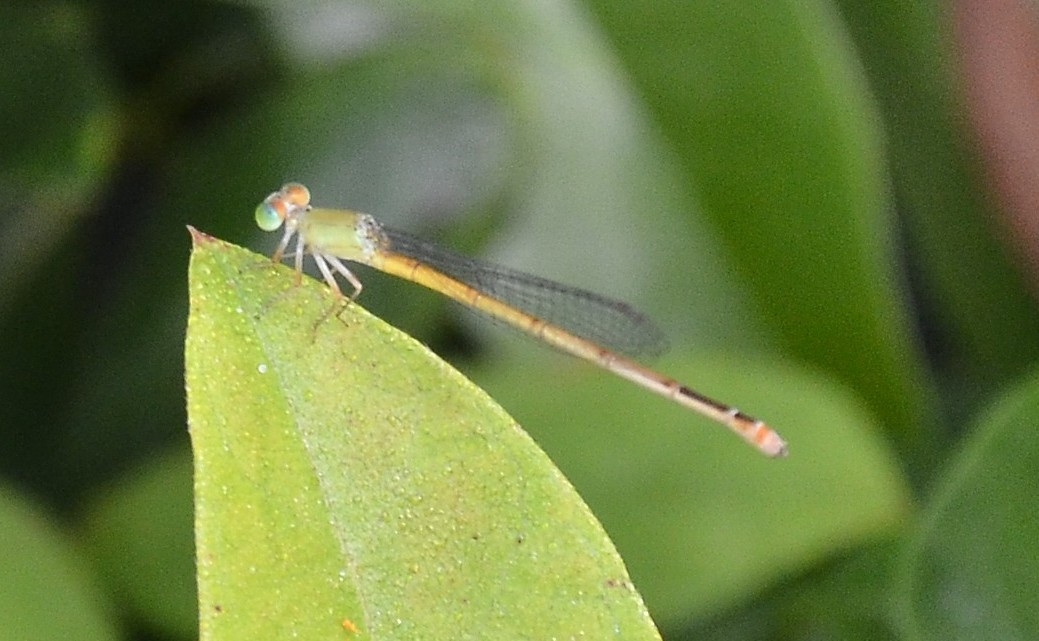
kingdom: Animalia
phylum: Arthropoda
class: Insecta
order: Odonata
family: Coenagrionidae
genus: Ceriagrion
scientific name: Ceriagrion coromandelianum
